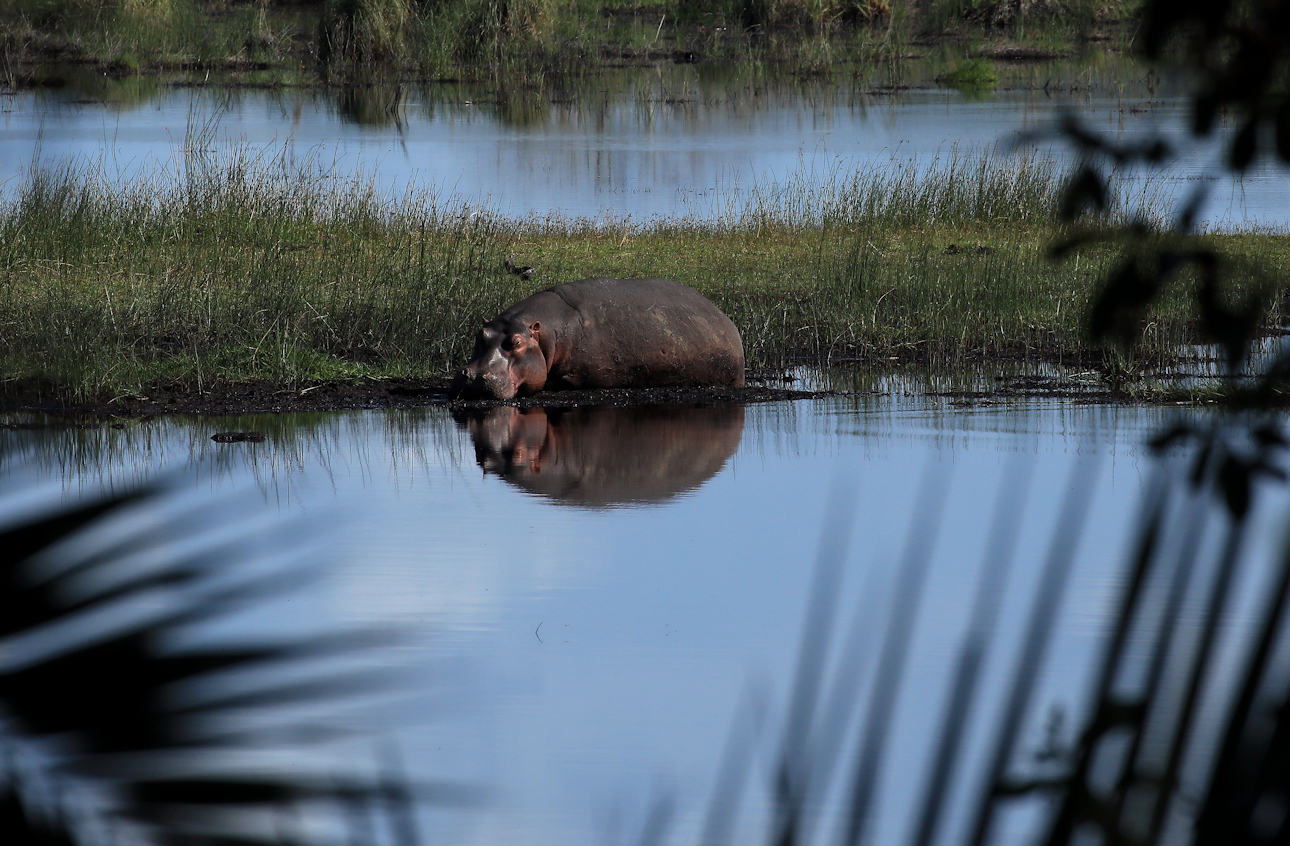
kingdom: Animalia
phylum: Chordata
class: Mammalia
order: Artiodactyla
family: Hippopotamidae
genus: Hippopotamus
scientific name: Hippopotamus amphibius
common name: Common hippopotamus
